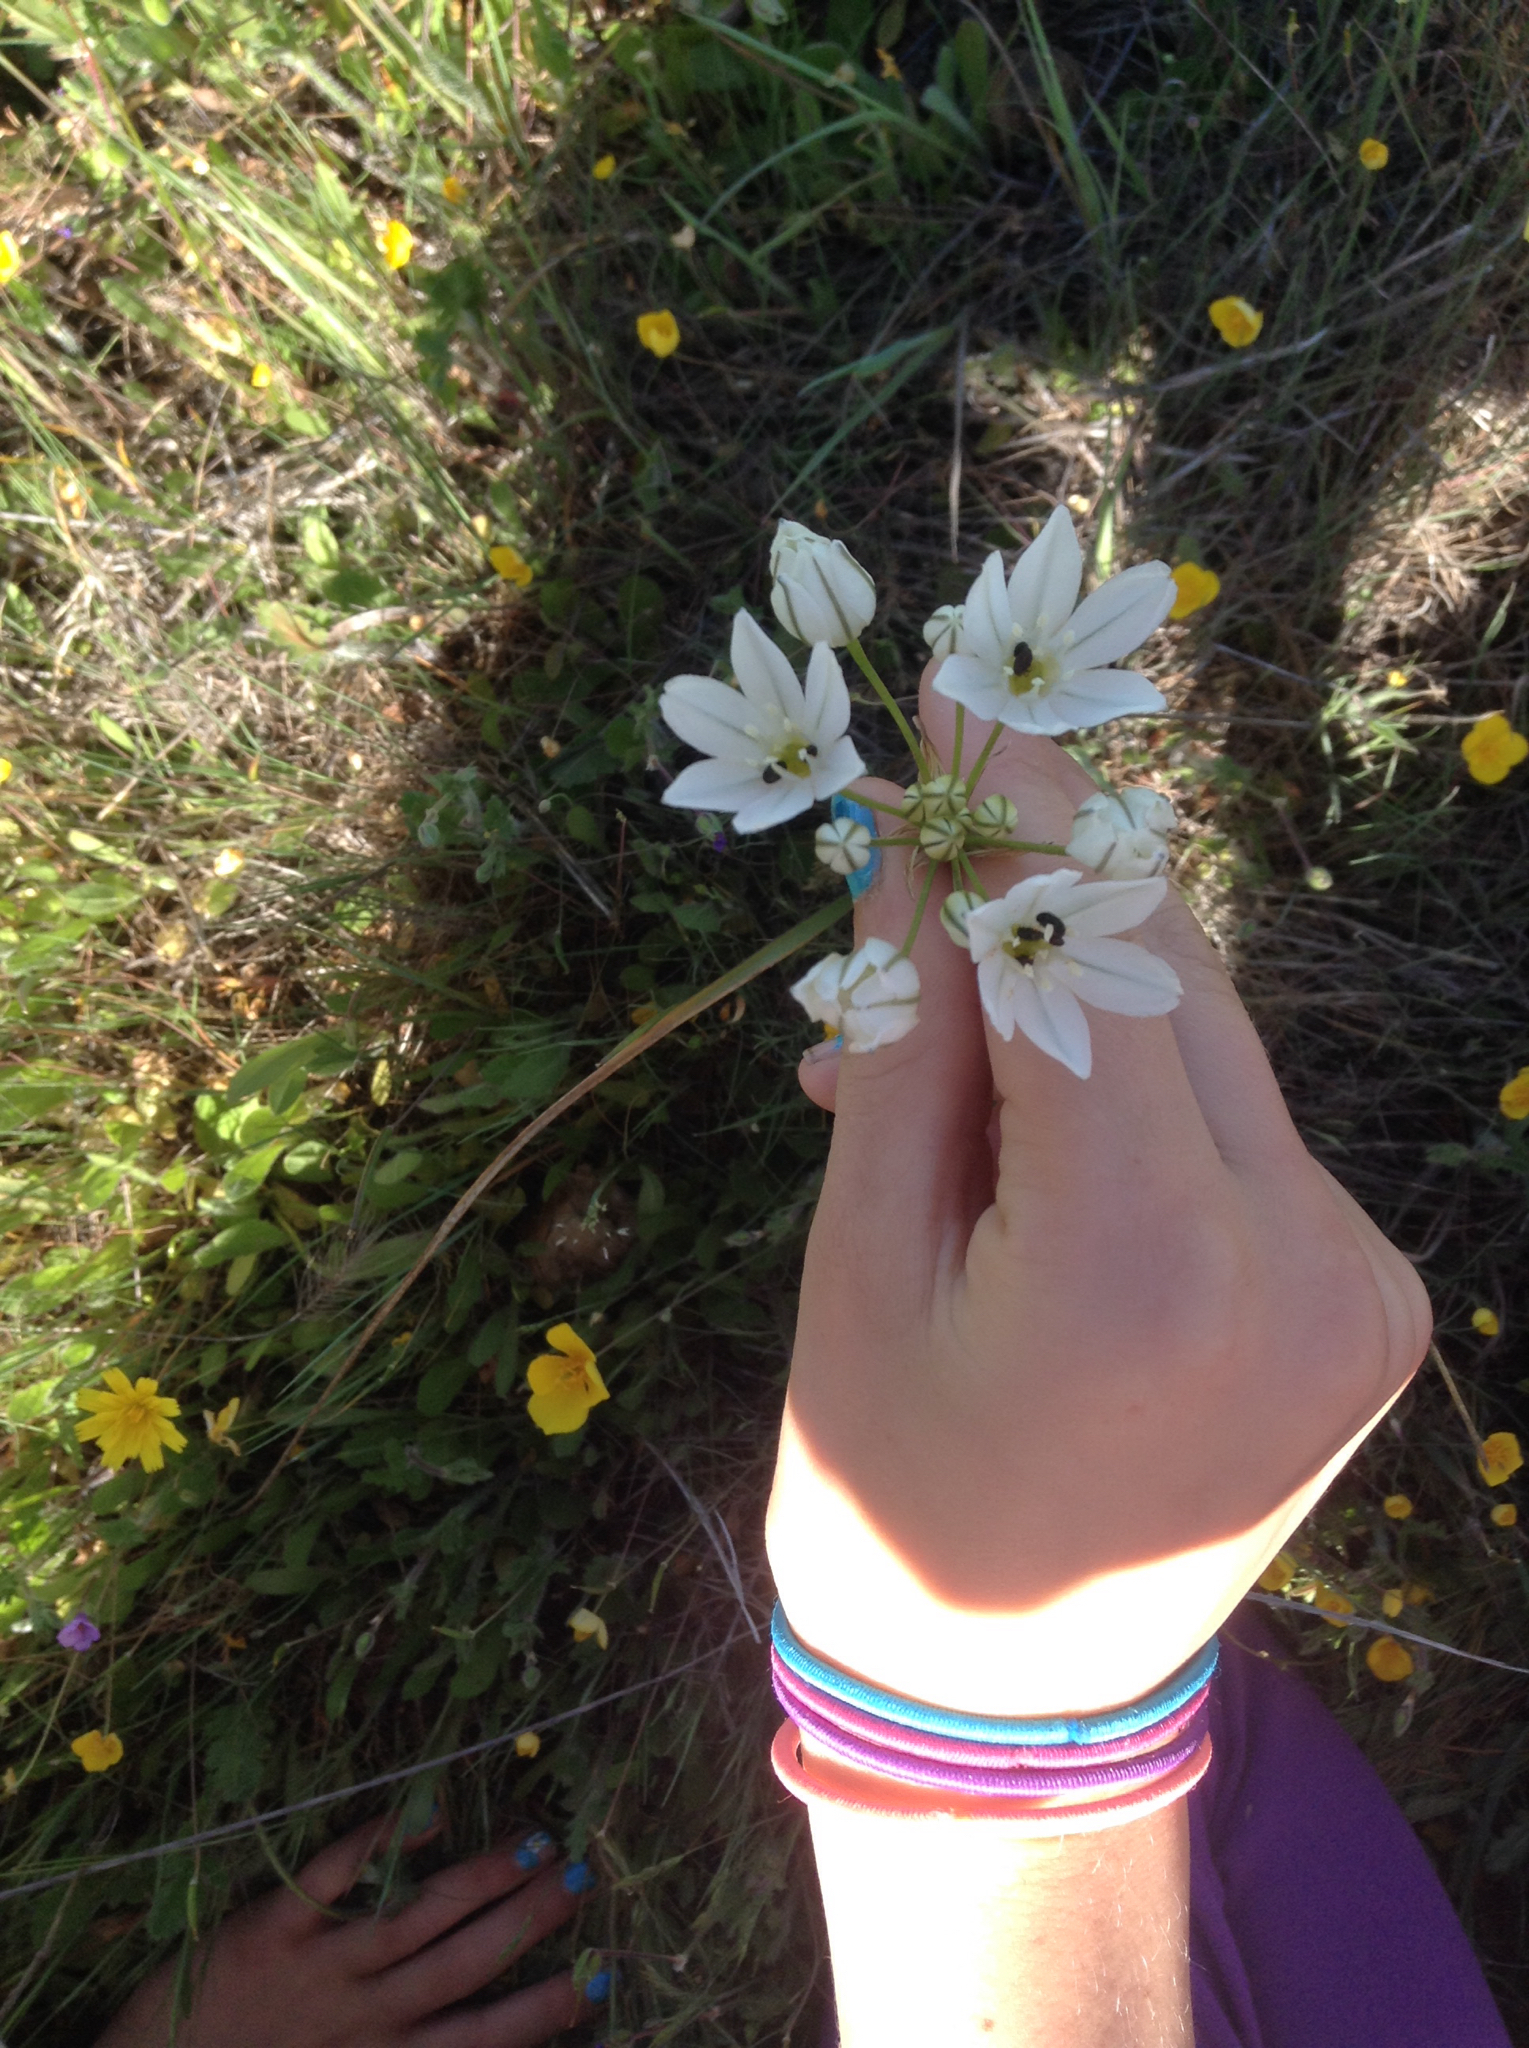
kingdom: Plantae
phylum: Tracheophyta
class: Liliopsida
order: Asparagales
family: Asparagaceae
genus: Triteleia
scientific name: Triteleia hyacinthina
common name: White brodiaea
